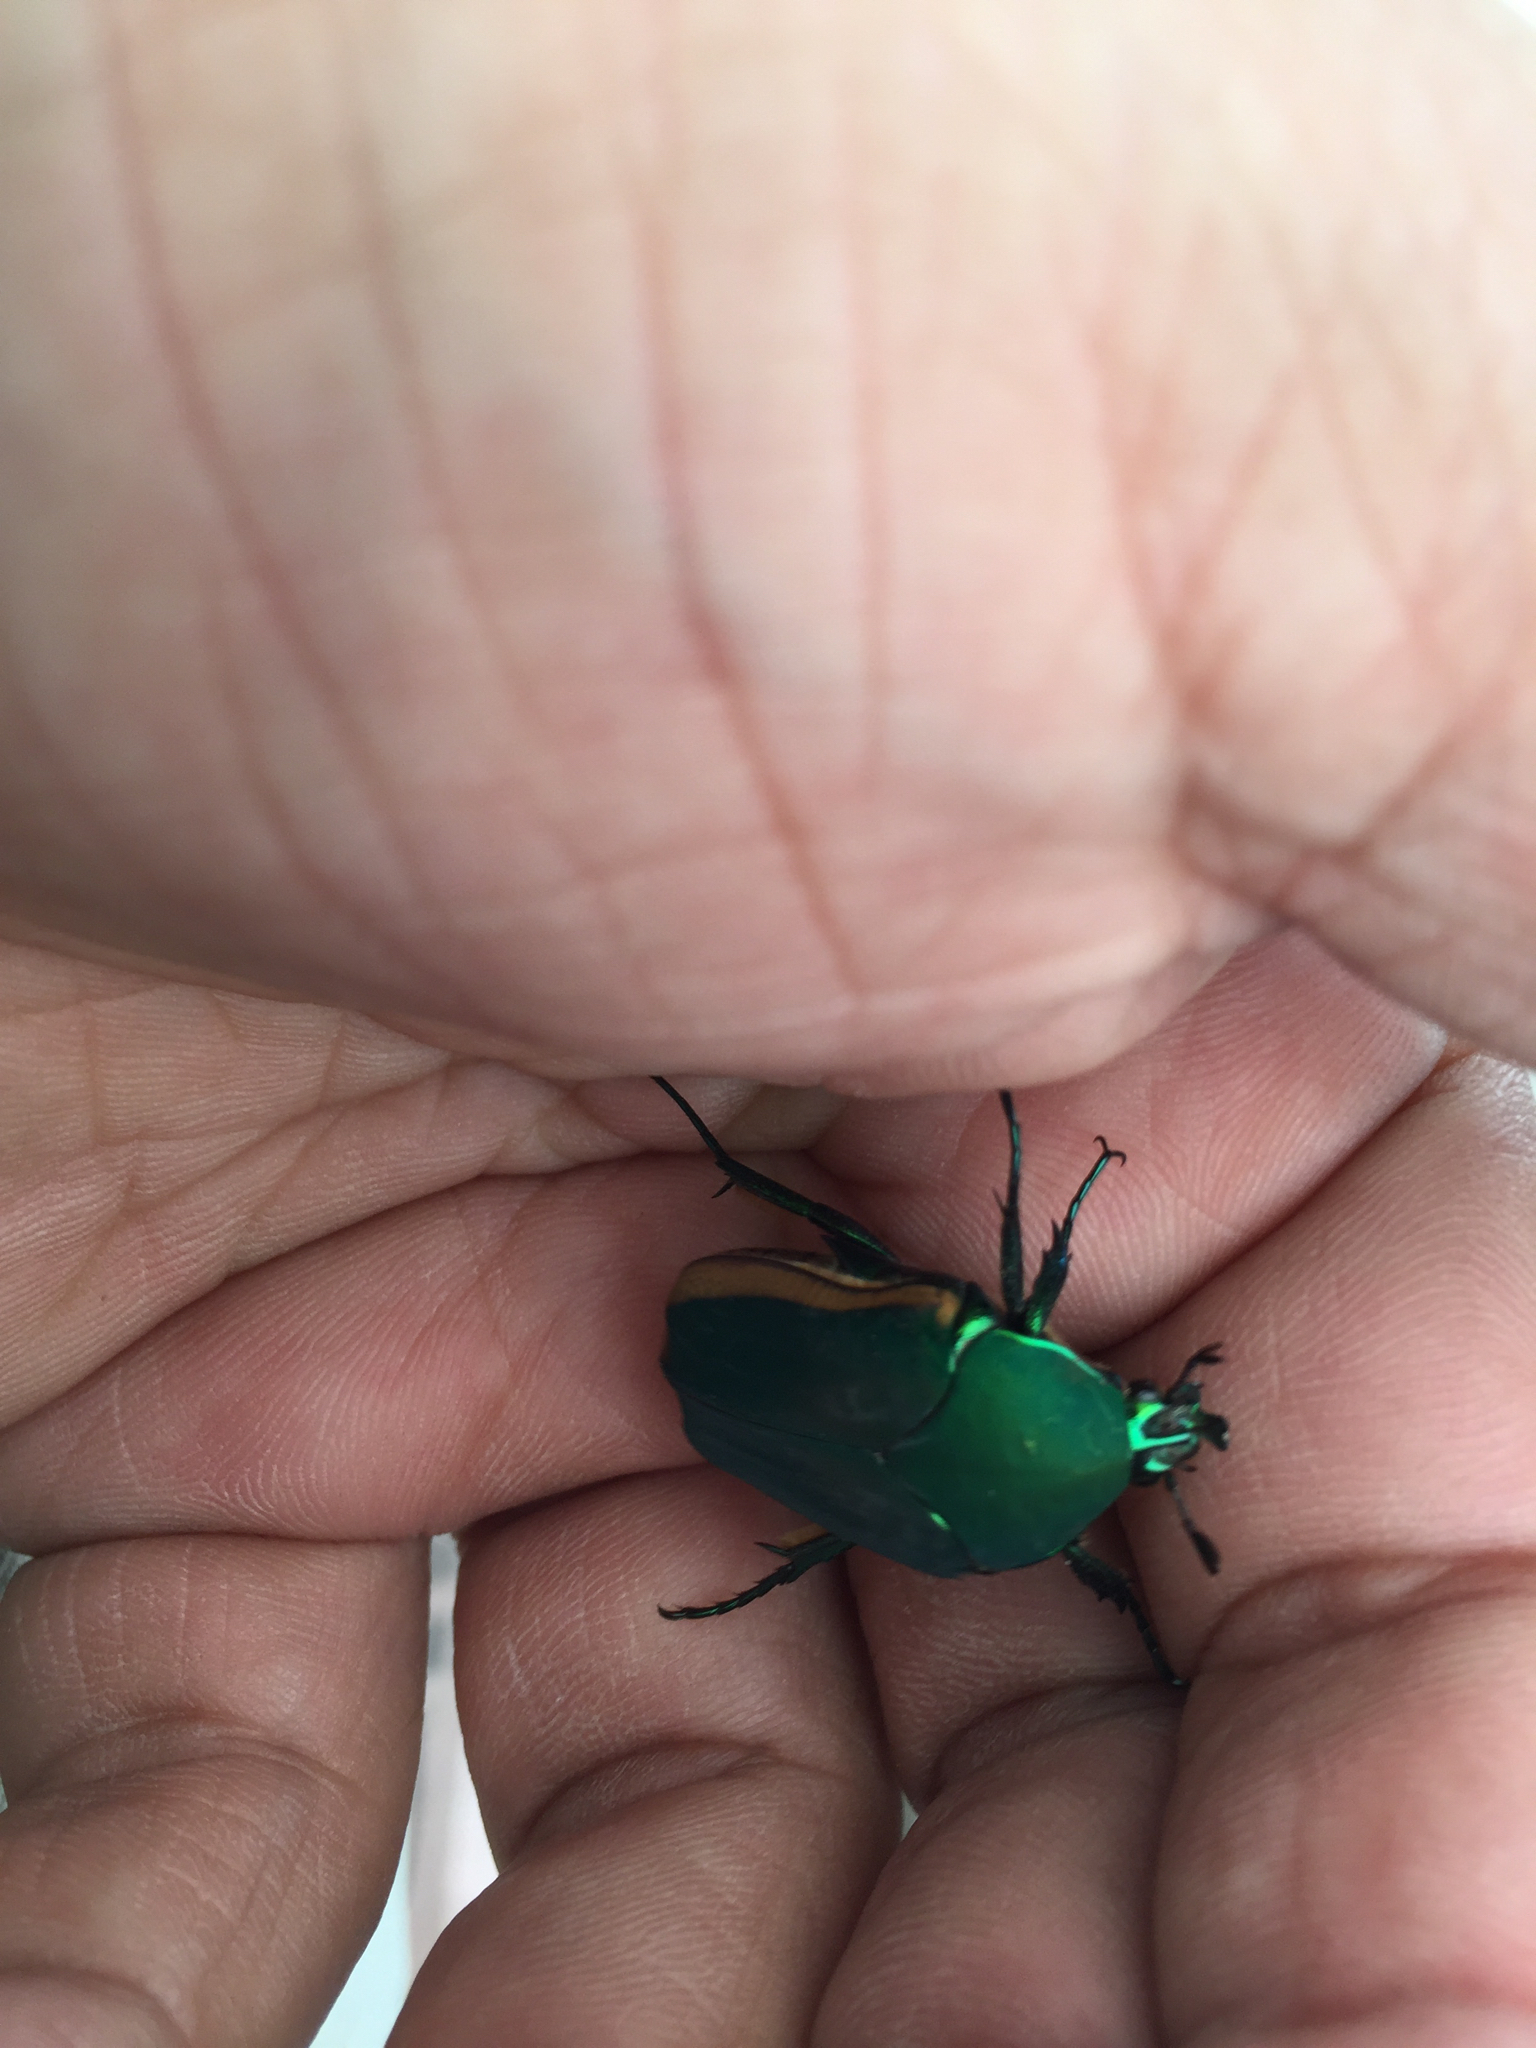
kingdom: Animalia
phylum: Arthropoda
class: Insecta
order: Coleoptera
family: Scarabaeidae
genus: Cotinis
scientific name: Cotinis mutabilis
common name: Figeater beetle
